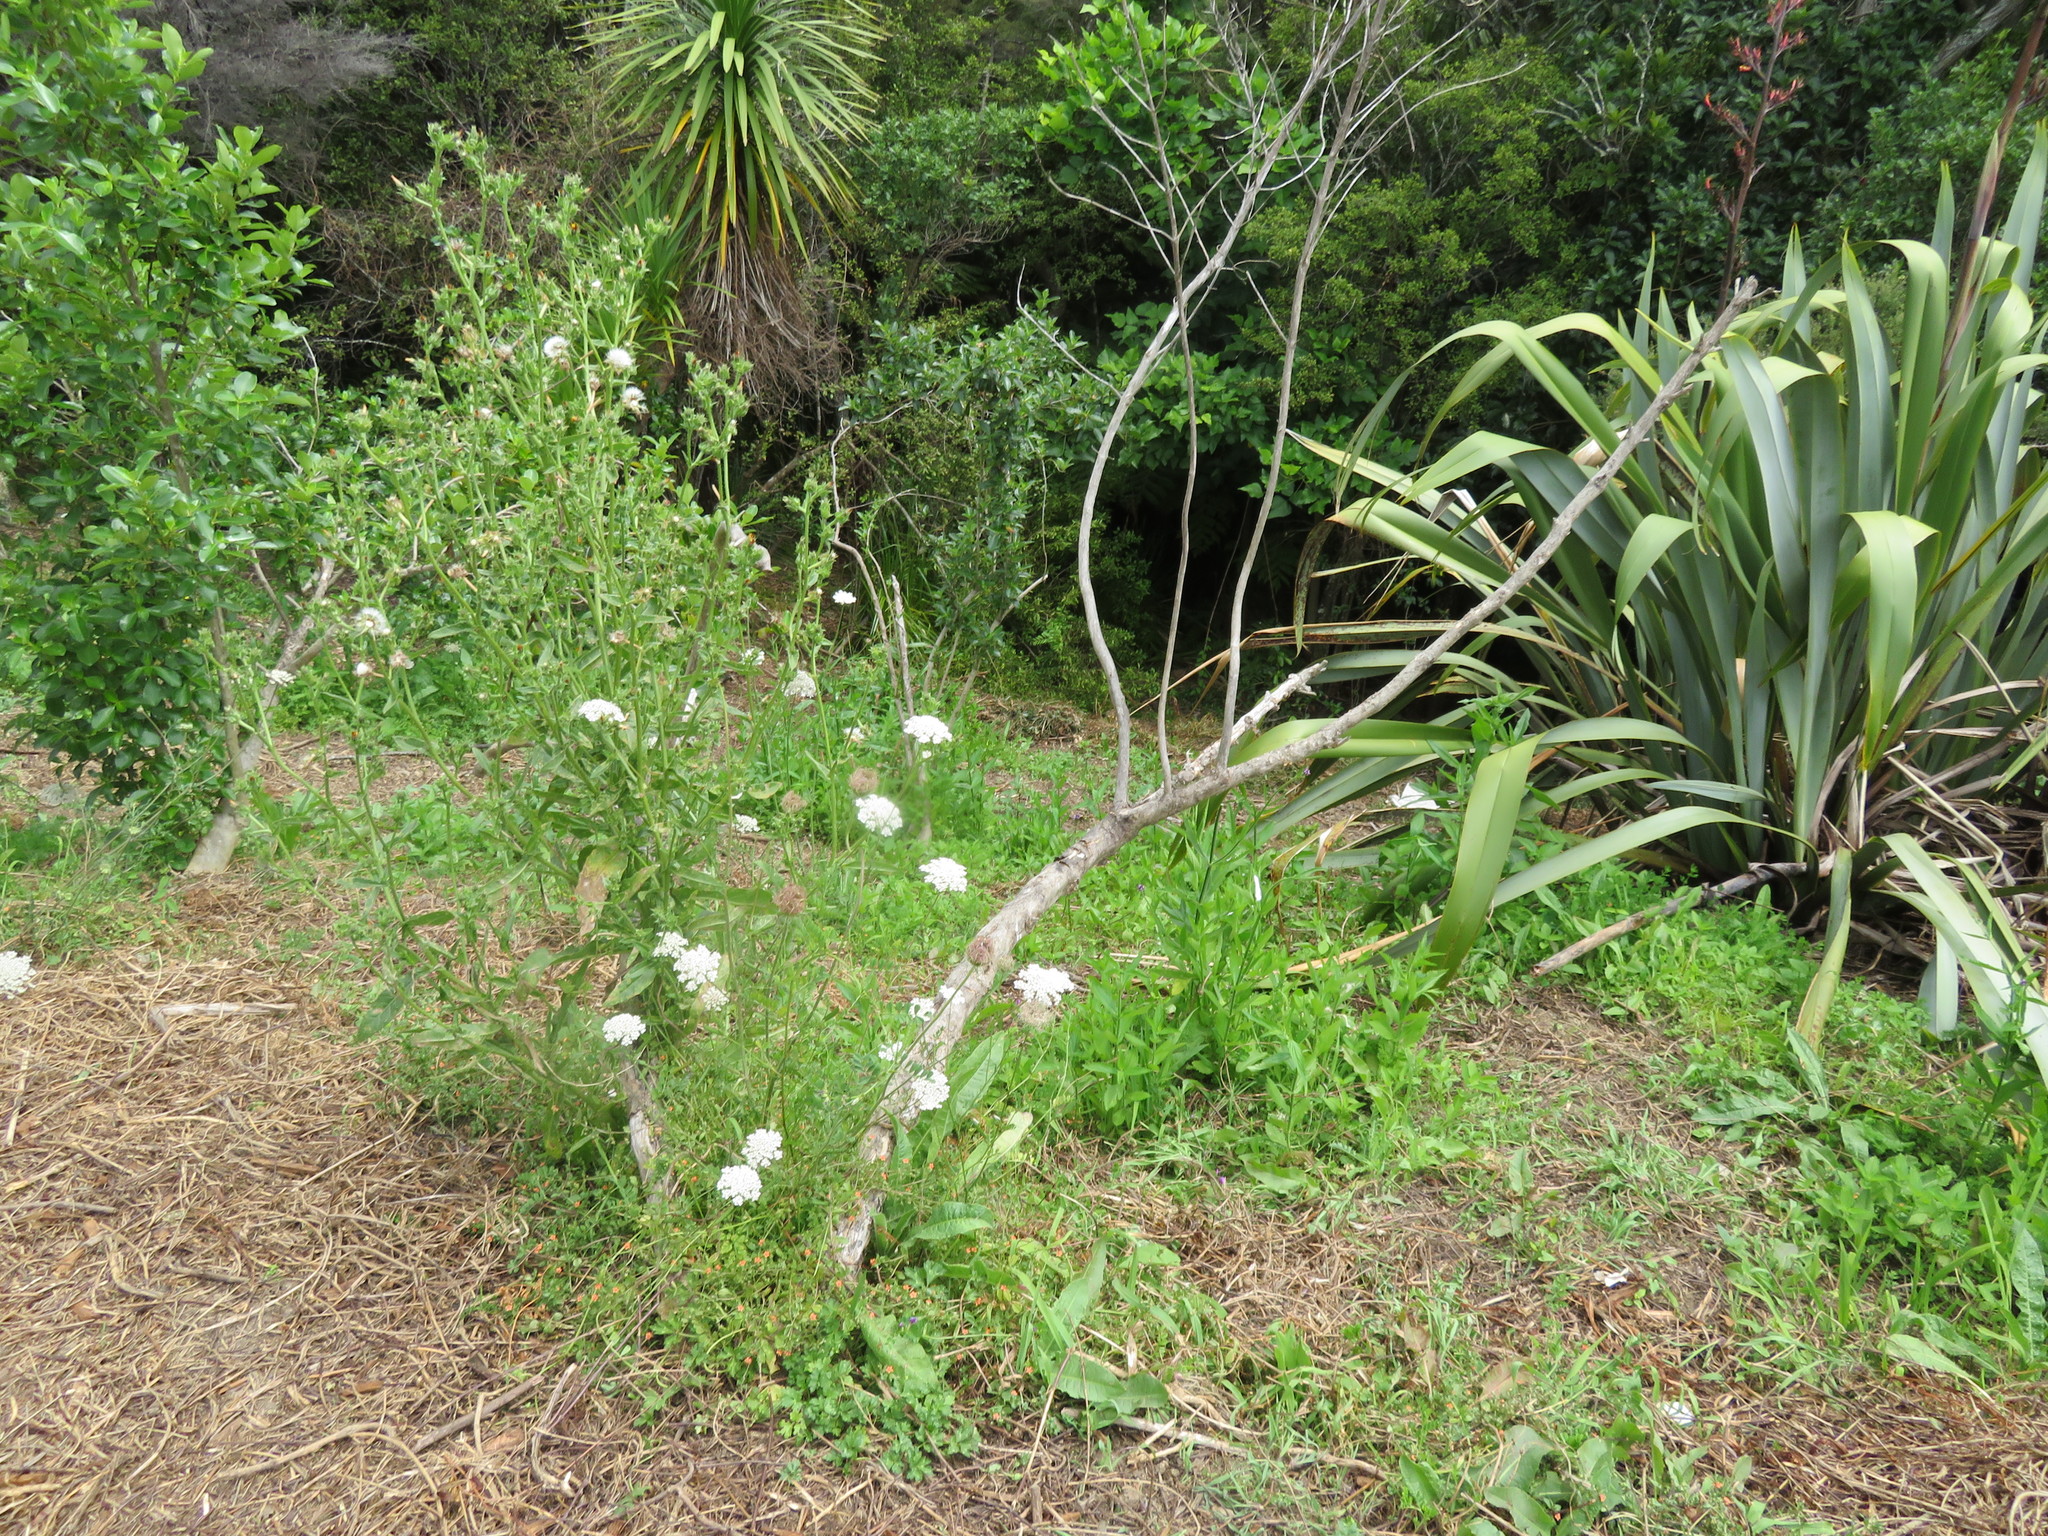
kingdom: Plantae
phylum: Tracheophyta
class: Magnoliopsida
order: Apiales
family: Apiaceae
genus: Daucus
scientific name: Daucus carota
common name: Wild carrot
